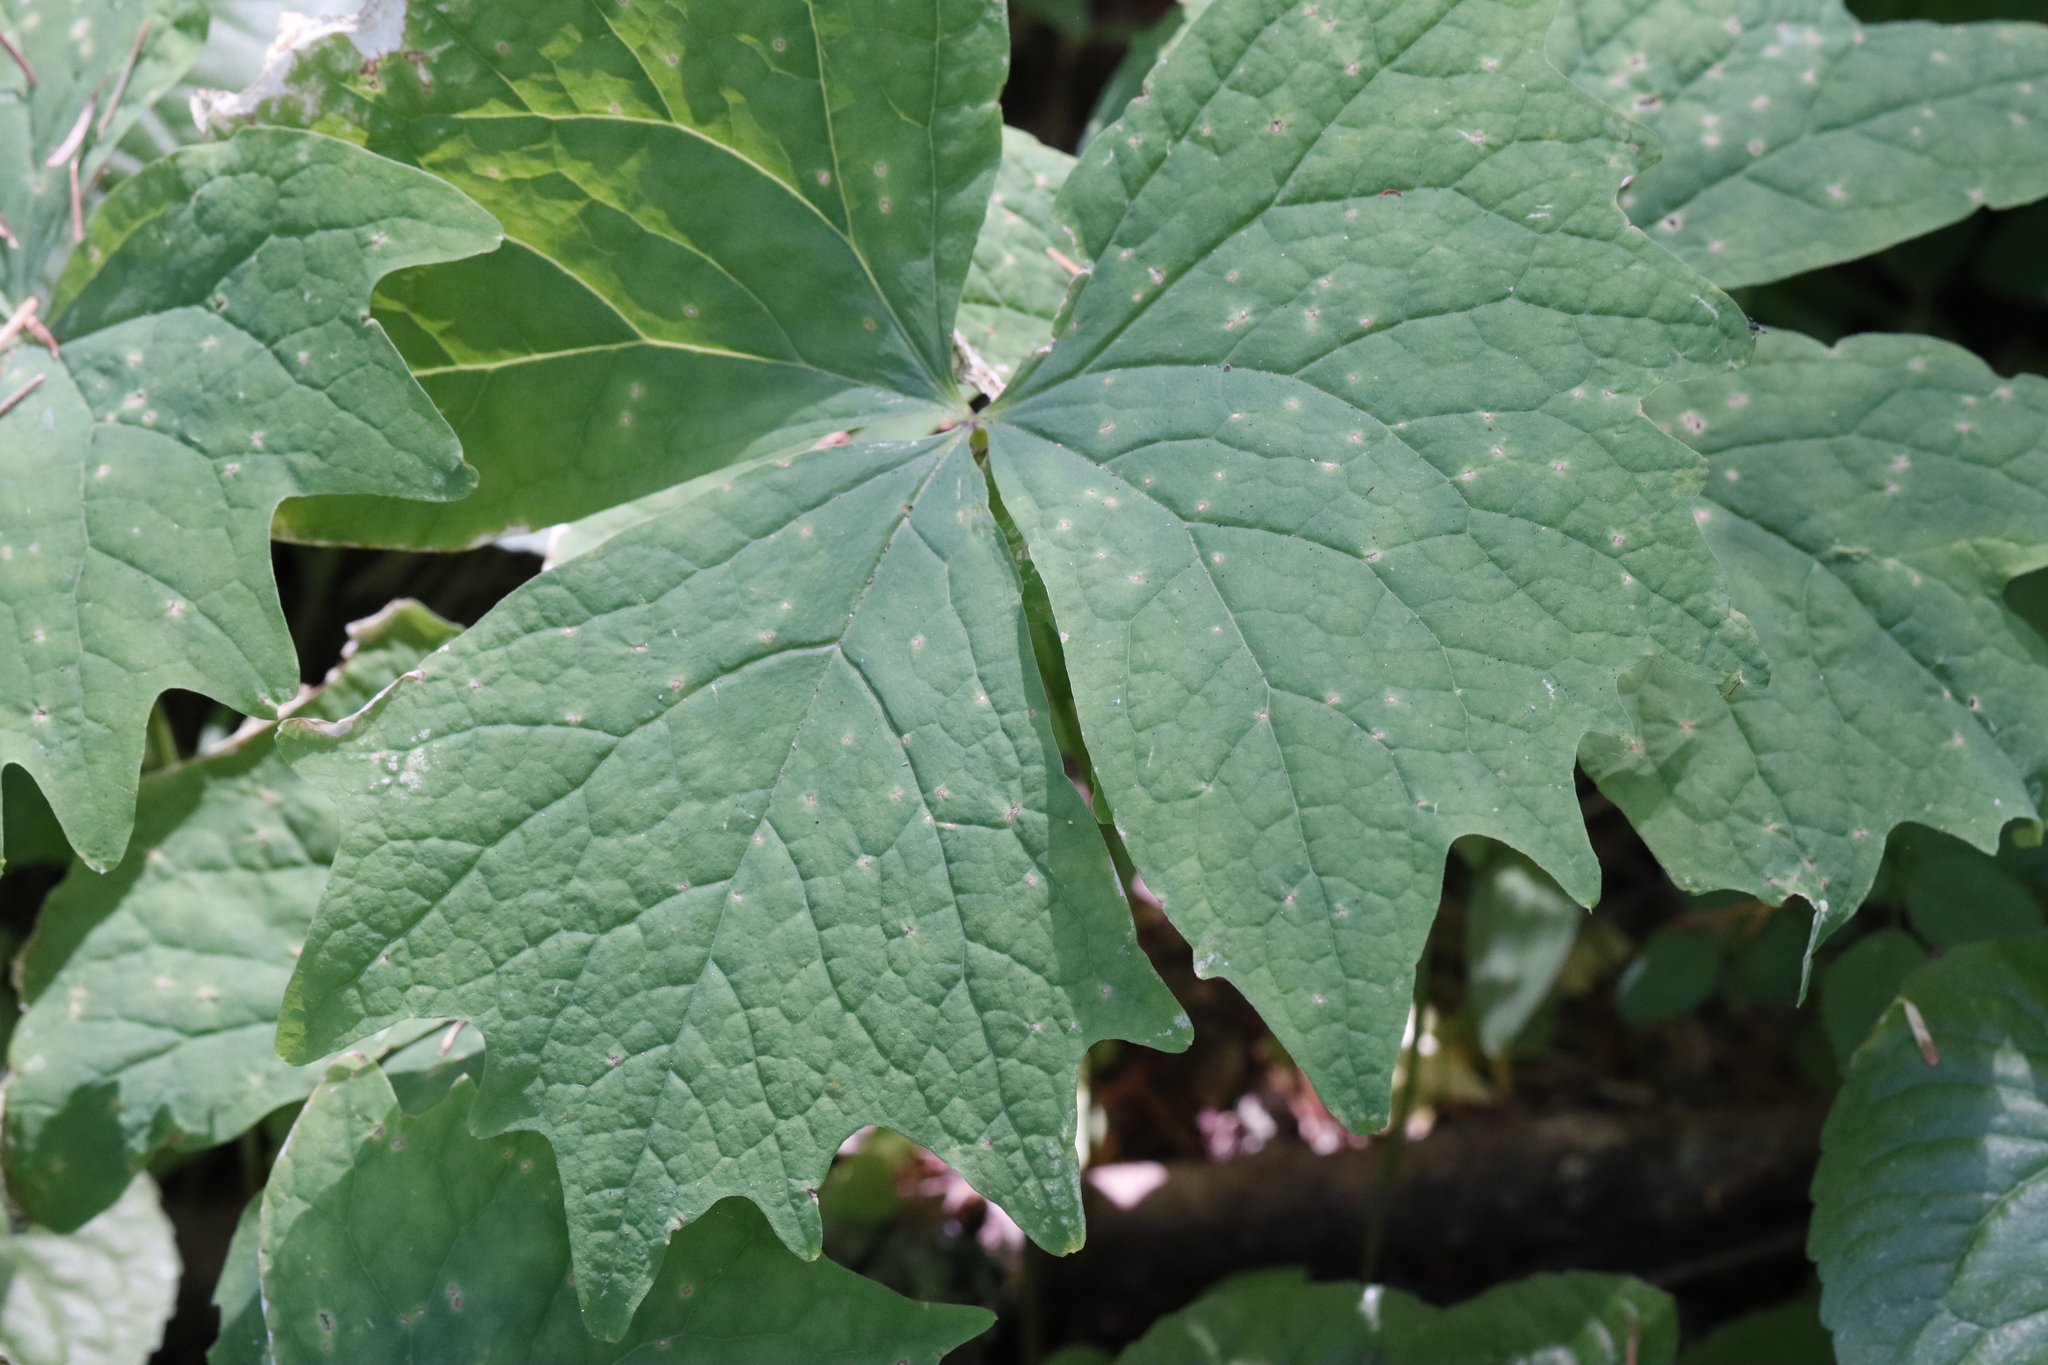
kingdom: Plantae
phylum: Tracheophyta
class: Magnoliopsida
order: Ranunculales
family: Berberidaceae
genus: Achlys
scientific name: Achlys triphylla
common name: Vanilla-leaf
